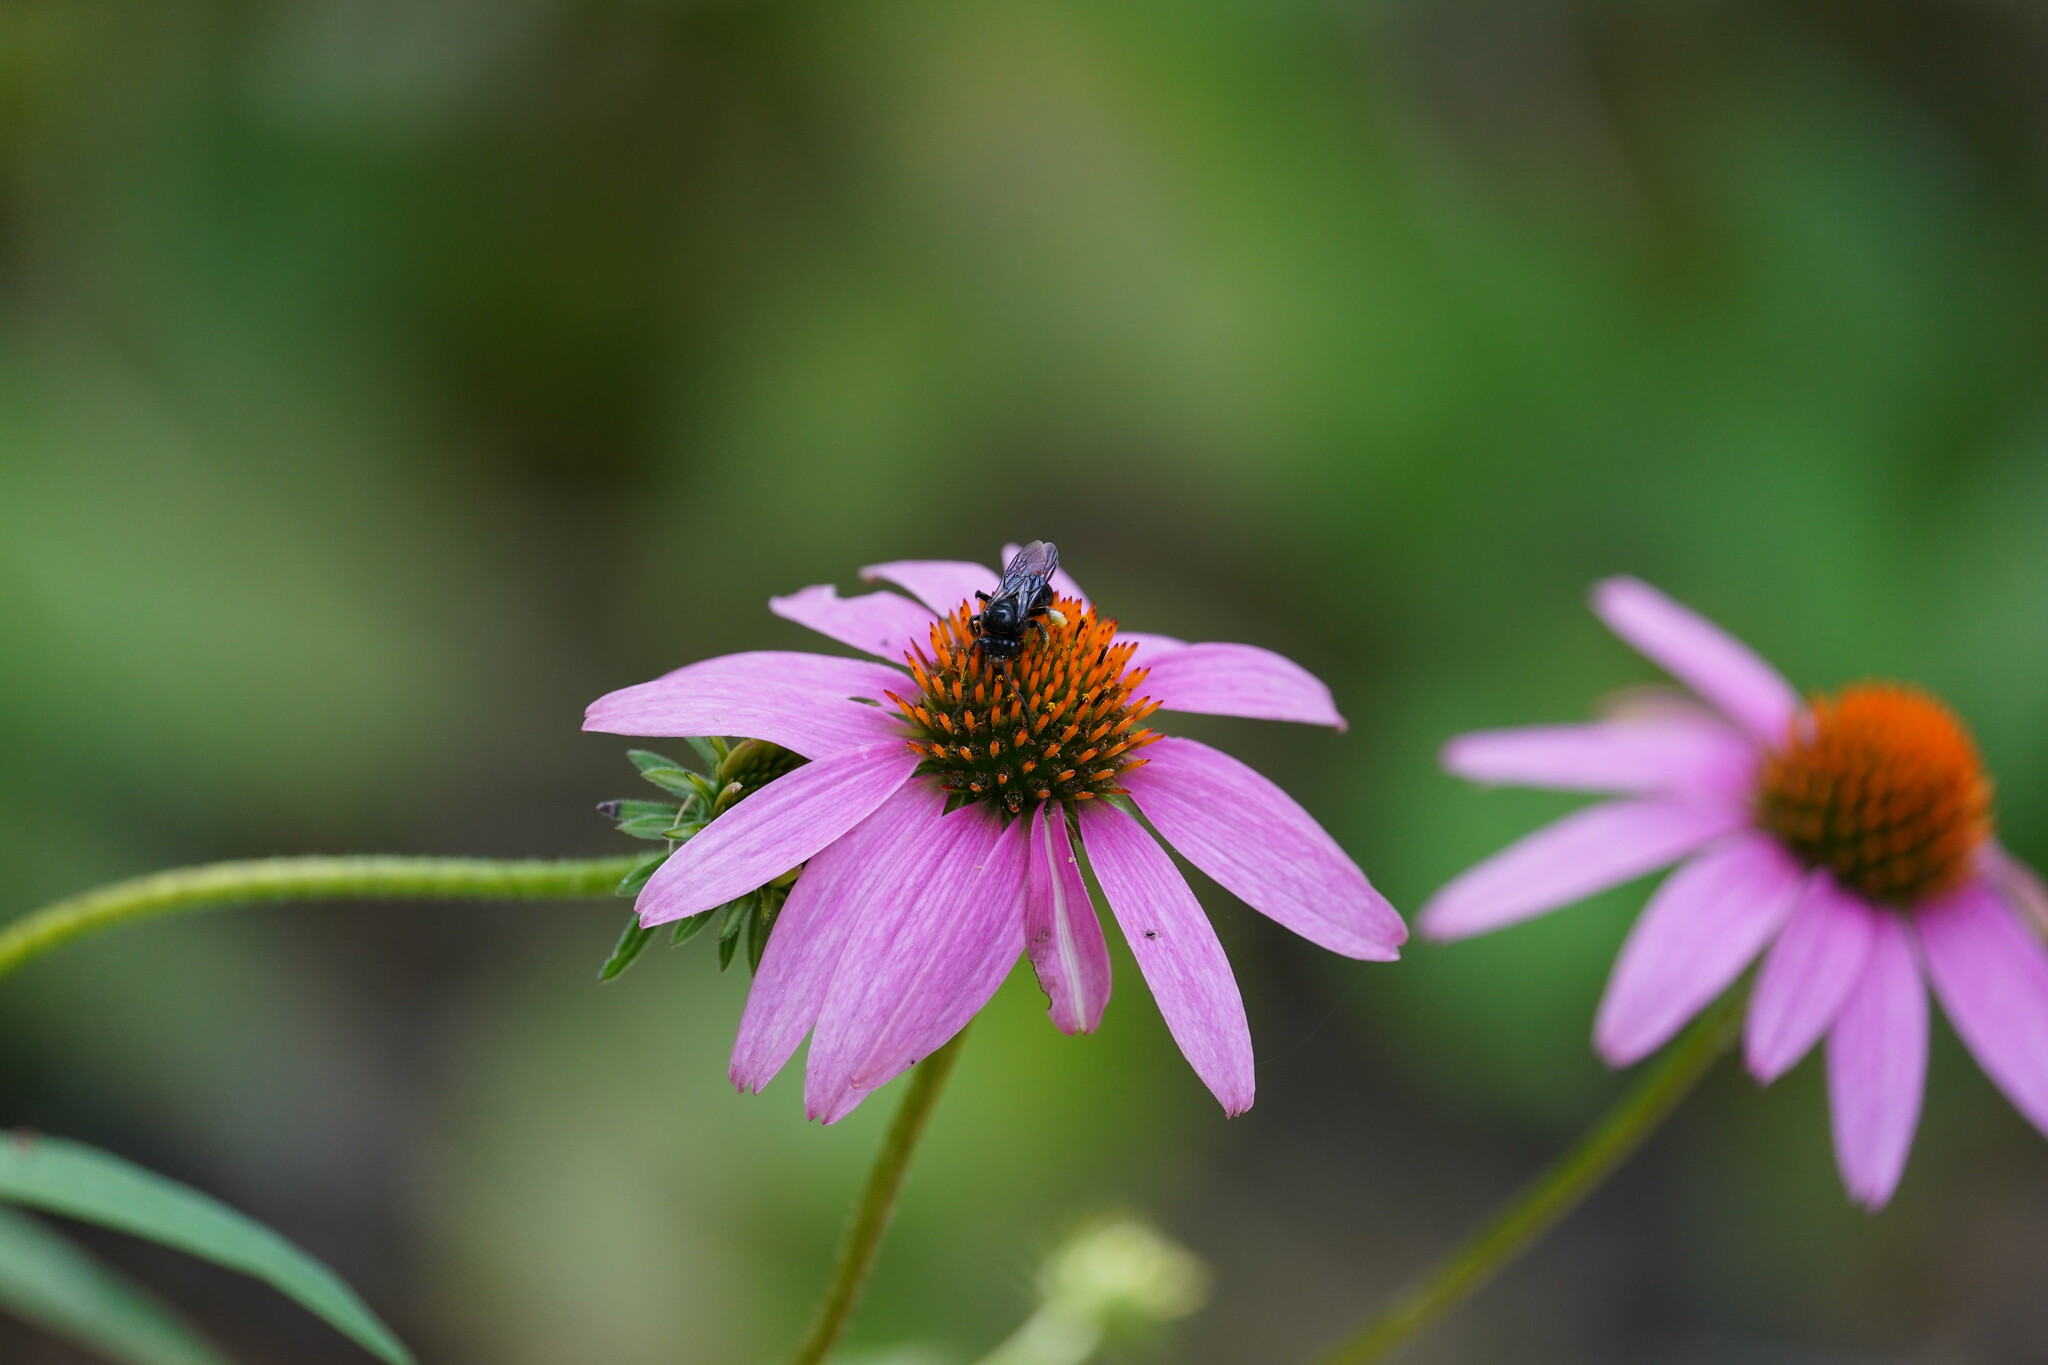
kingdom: Animalia
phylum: Arthropoda
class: Insecta
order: Hymenoptera
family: Apidae
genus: Melissodes
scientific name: Melissodes bimaculatus
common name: Two-spotted long-horned bee
